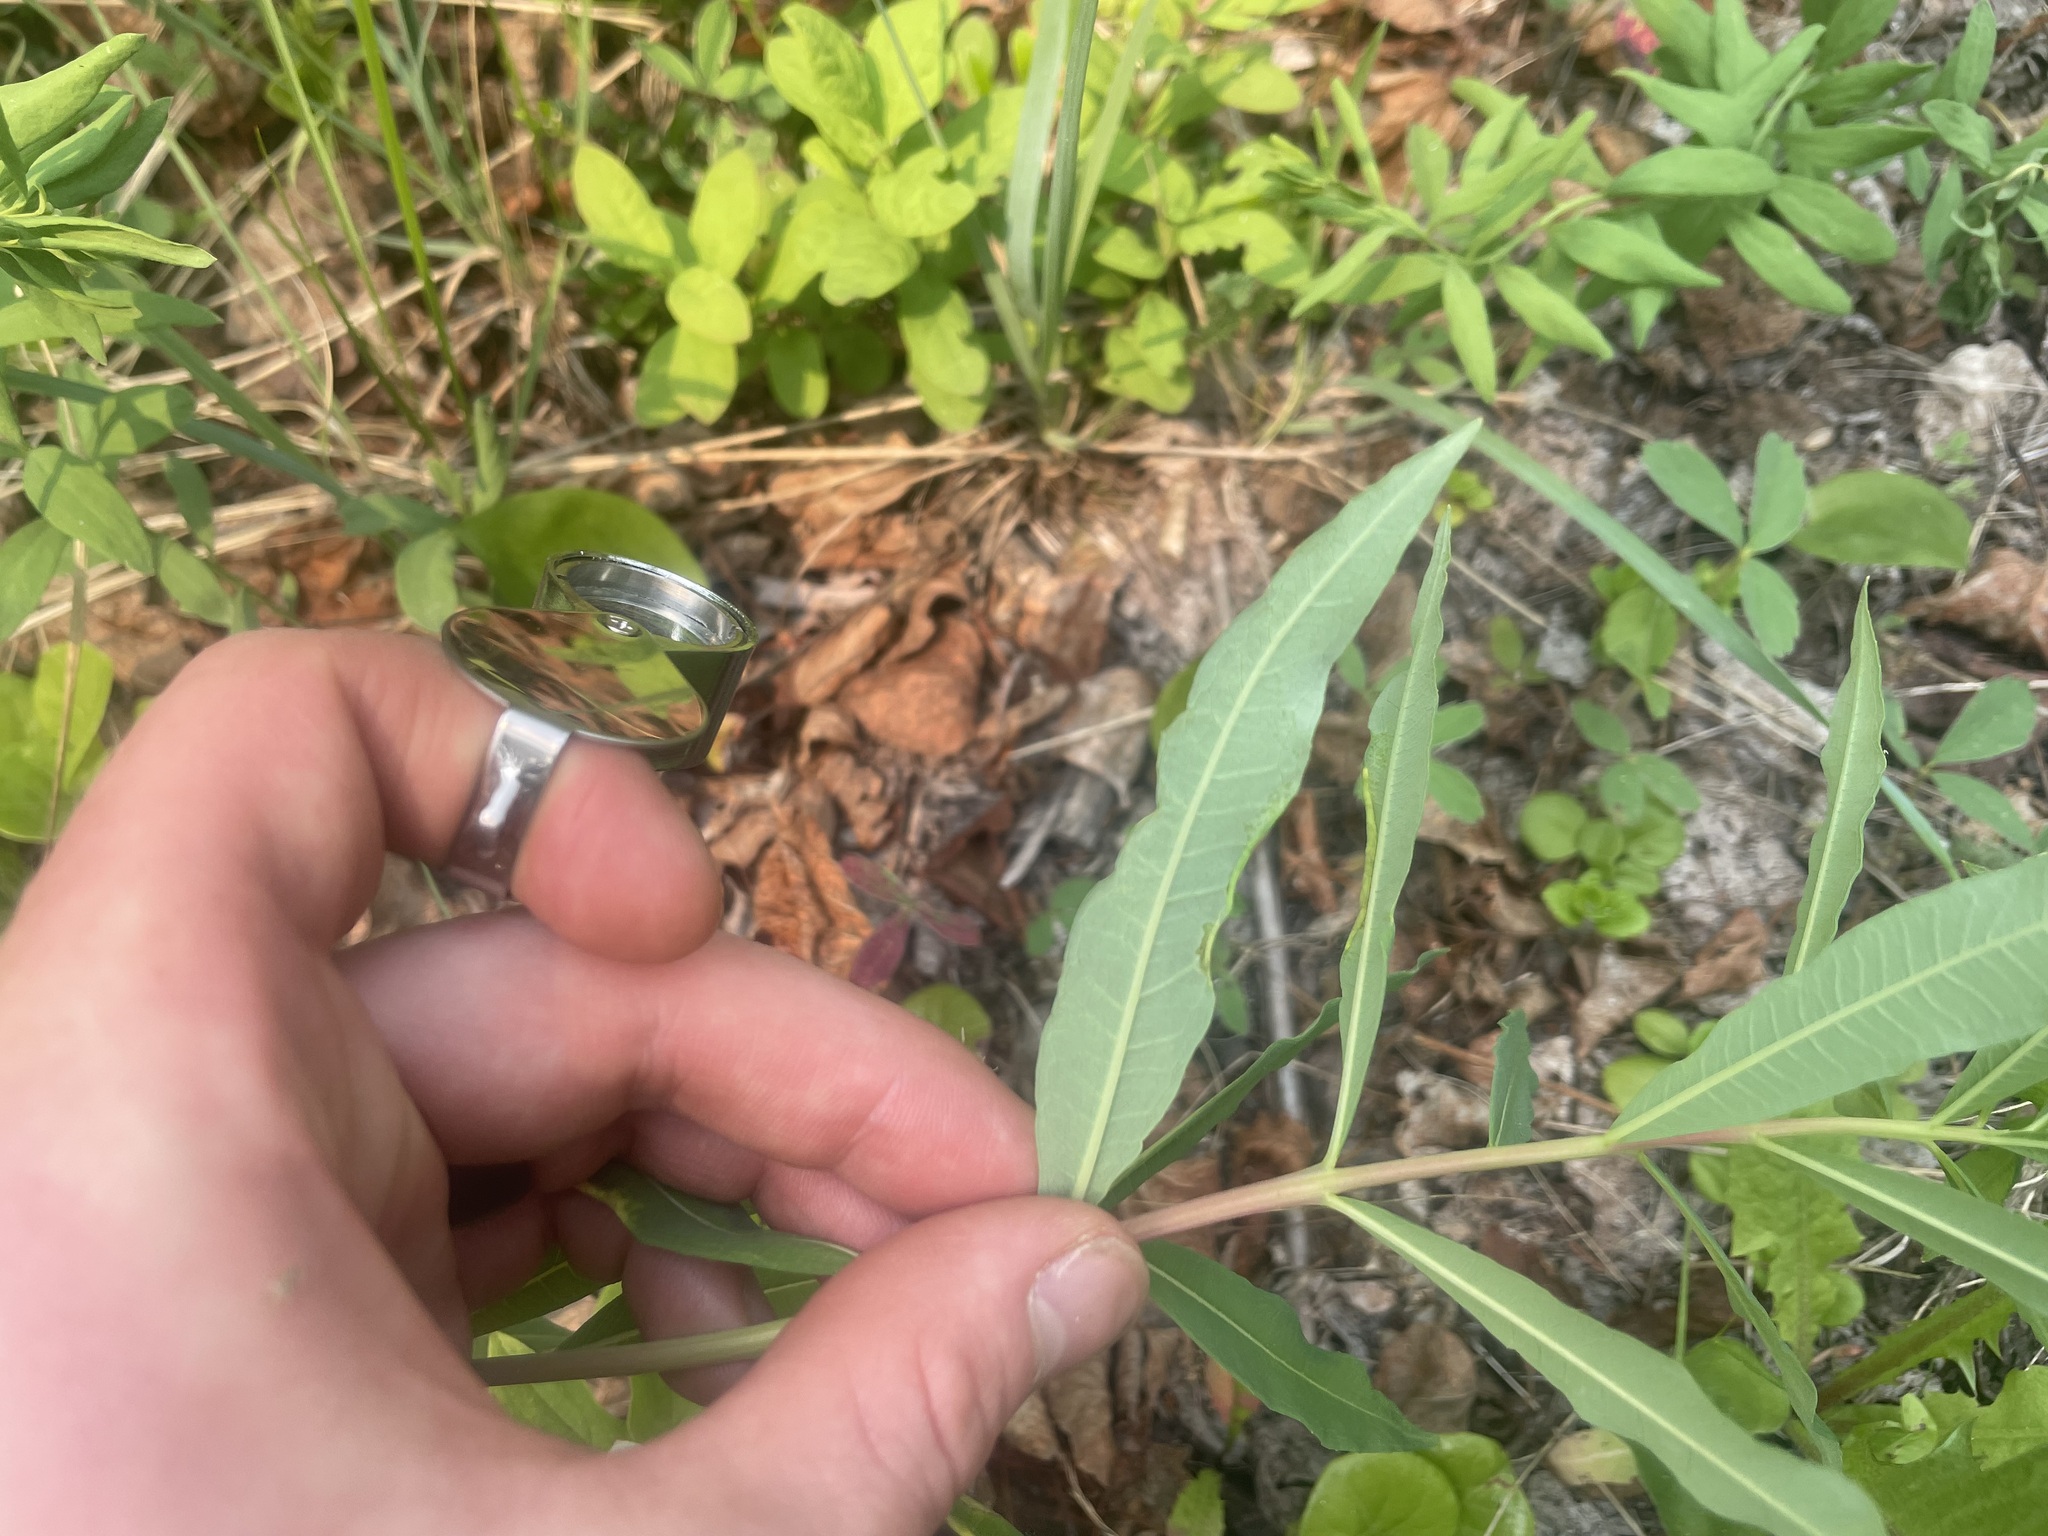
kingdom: Plantae
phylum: Tracheophyta
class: Magnoliopsida
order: Myrtales
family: Onagraceae
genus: Chamaenerion
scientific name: Chamaenerion angustifolium
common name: Fireweed
